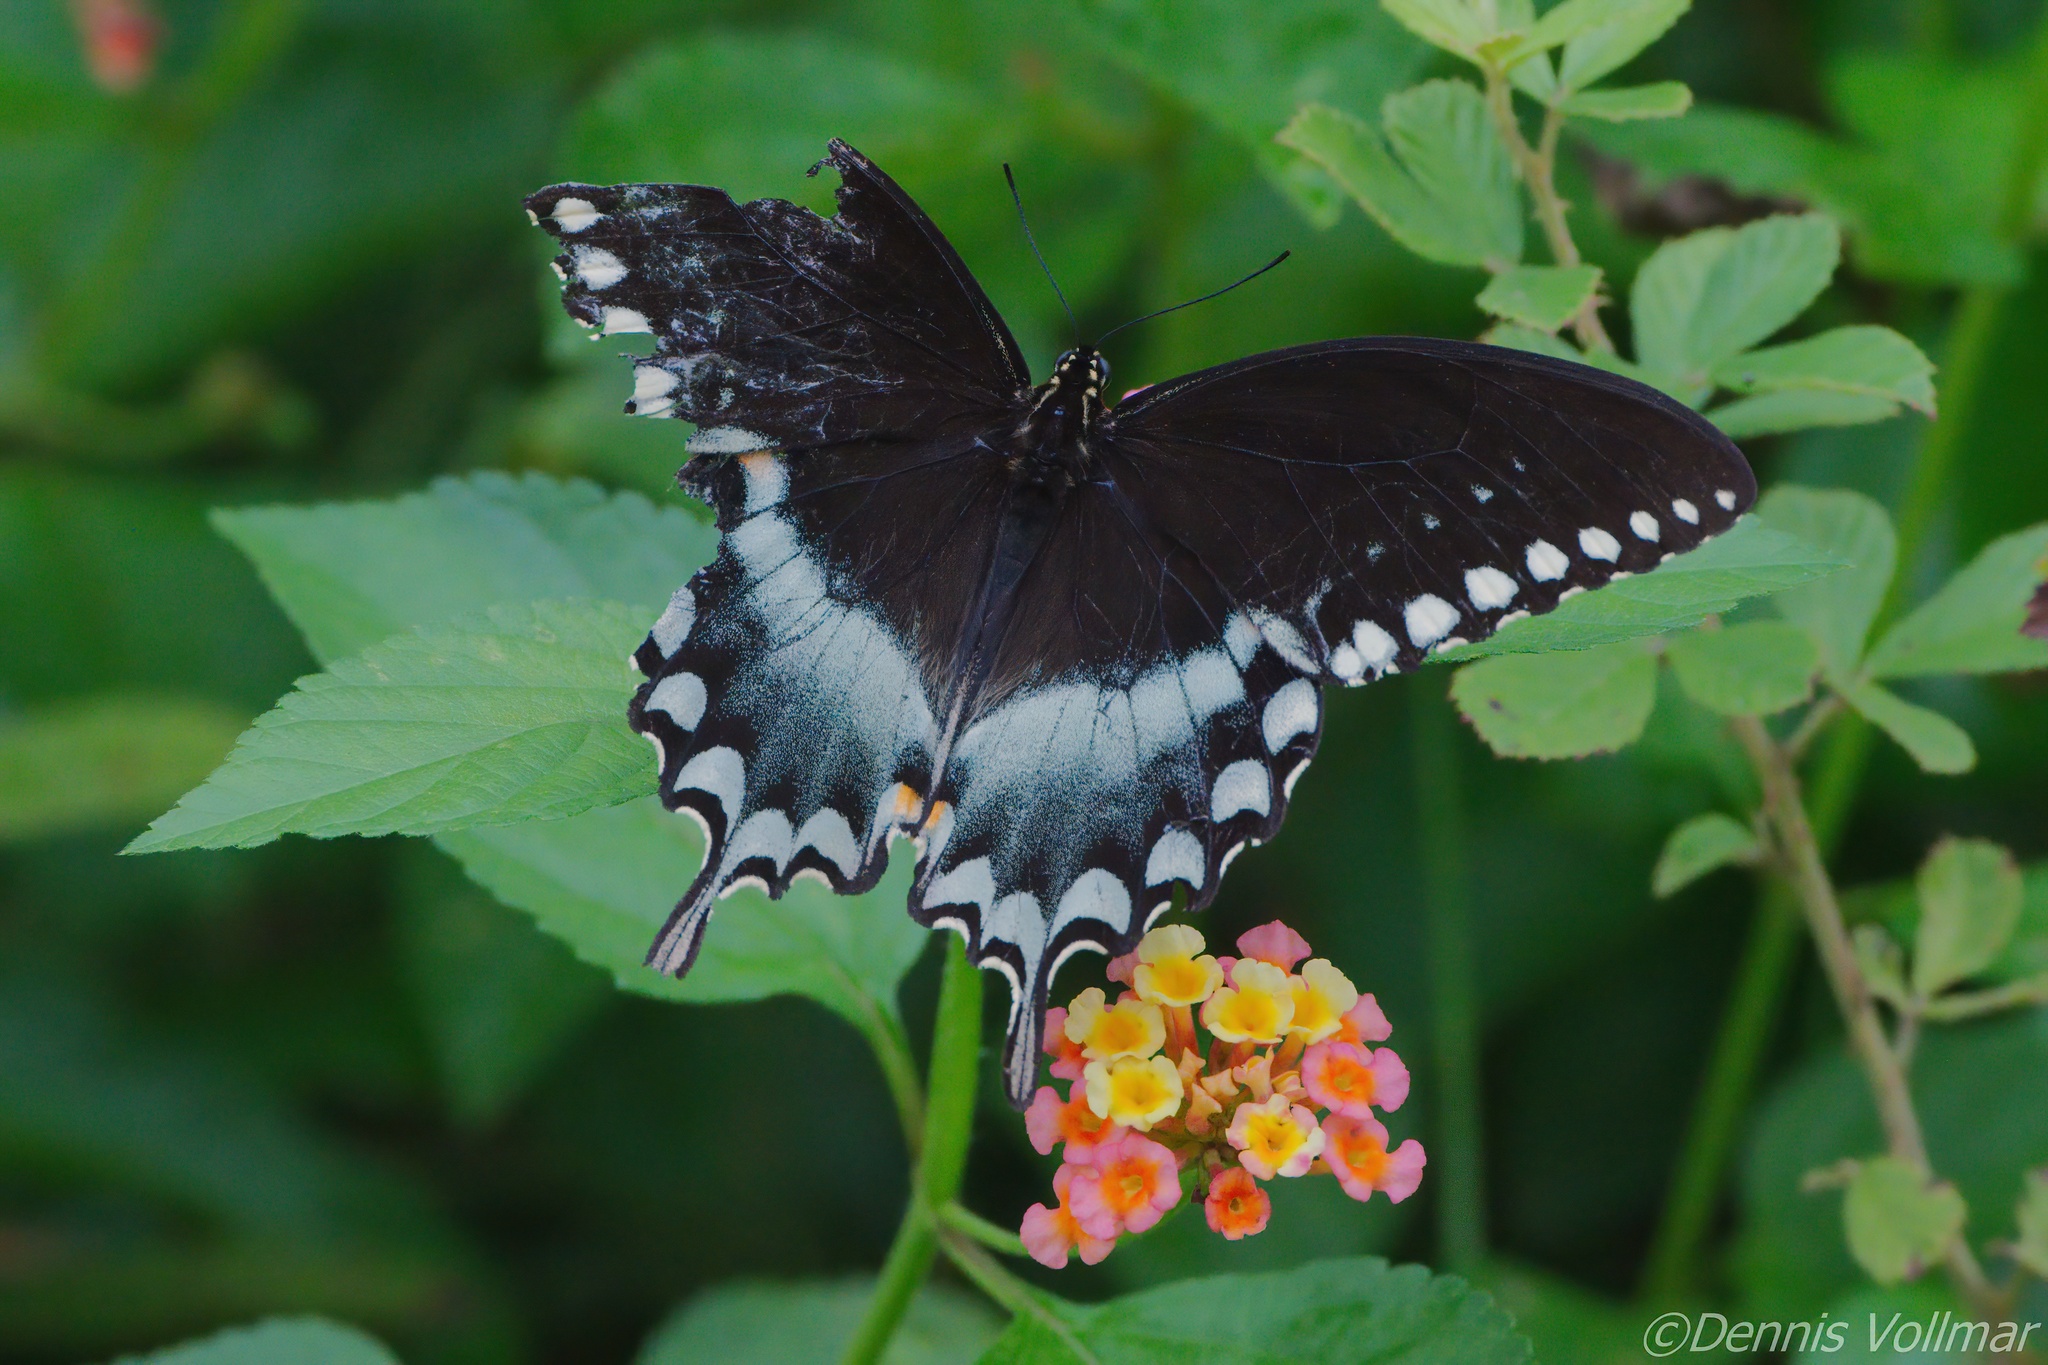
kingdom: Animalia
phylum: Arthropoda
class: Insecta
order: Lepidoptera
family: Papilionidae
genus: Papilio
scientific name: Papilio troilus
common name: Spicebush swallowtail
